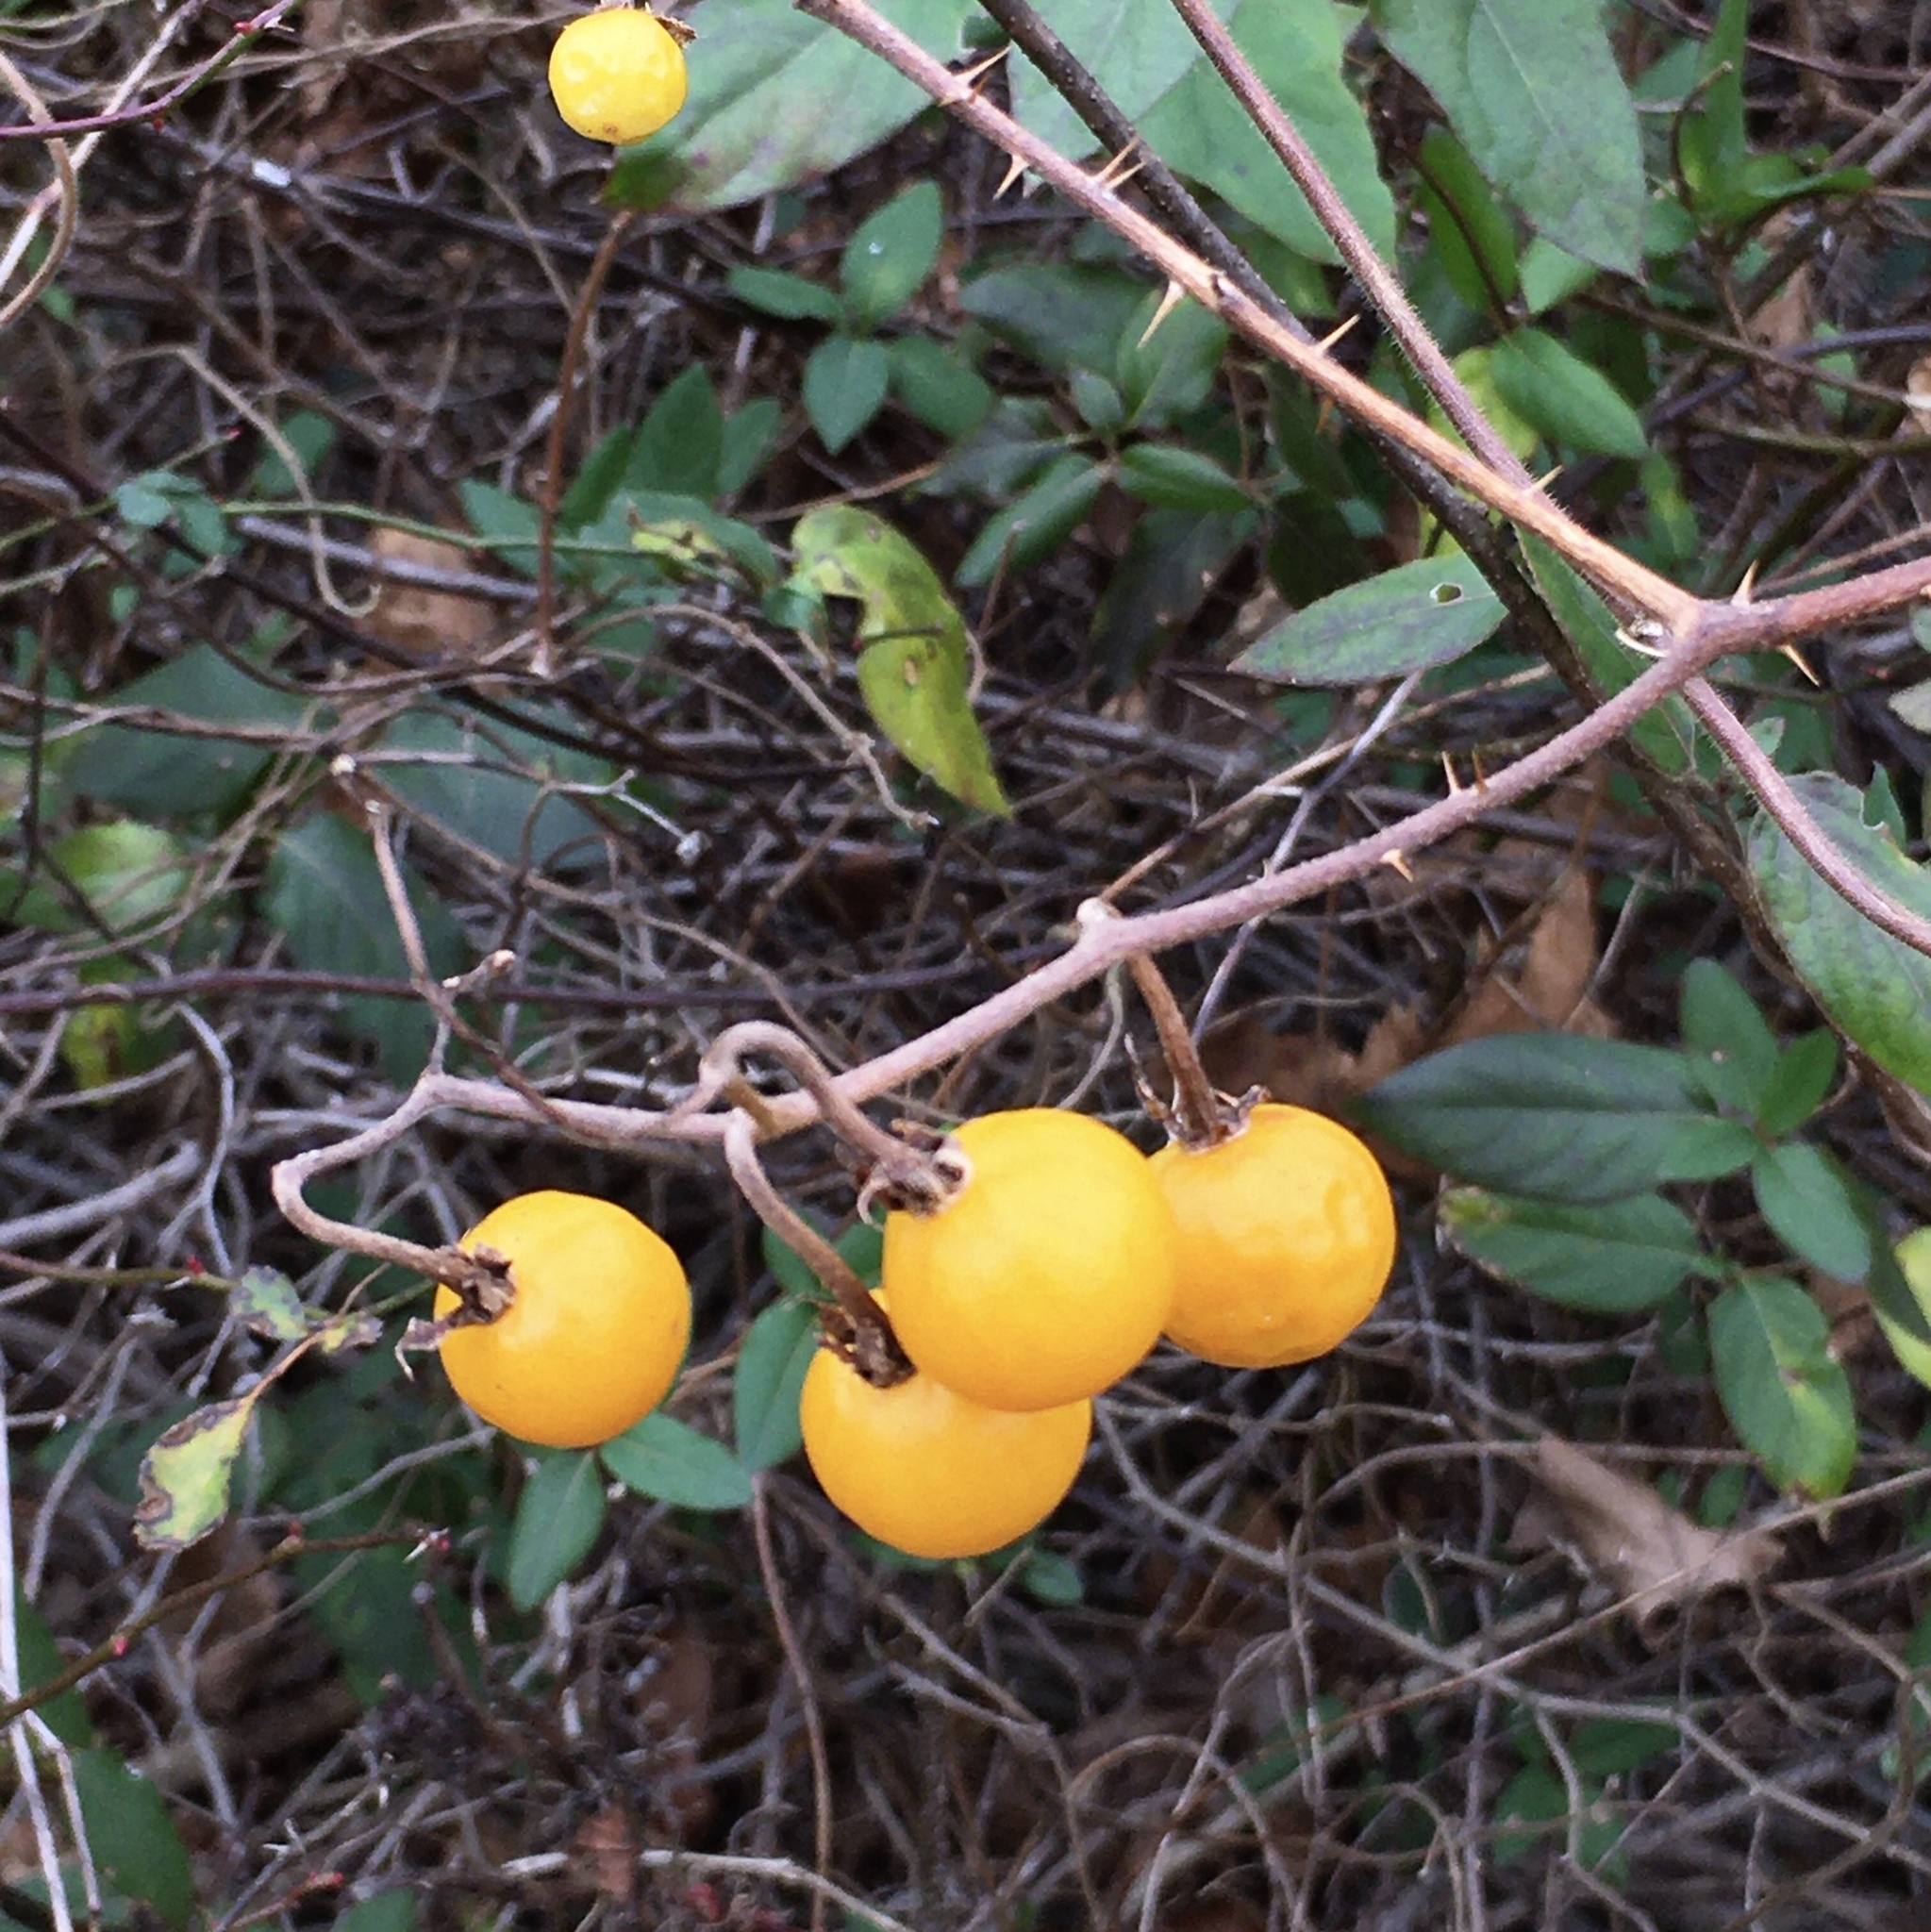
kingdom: Plantae
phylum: Tracheophyta
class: Magnoliopsida
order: Solanales
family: Solanaceae
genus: Solanum
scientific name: Solanum carolinense
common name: Horse-nettle
